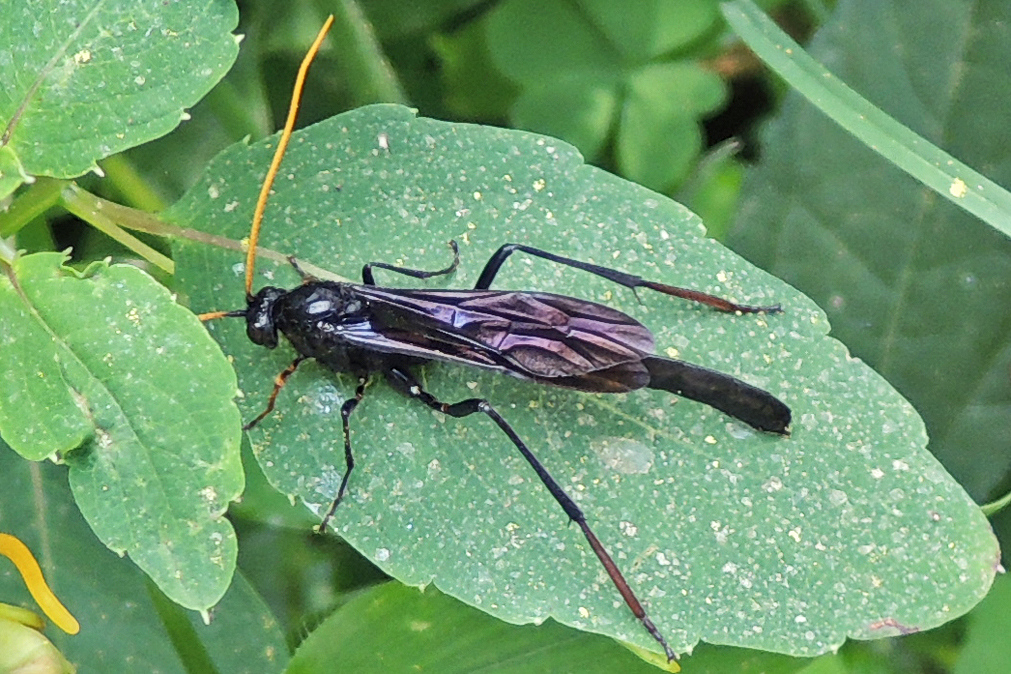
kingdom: Animalia
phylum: Arthropoda
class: Insecta
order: Hymenoptera
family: Ichneumonidae
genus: Heteropelma
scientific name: Heteropelma datanae
